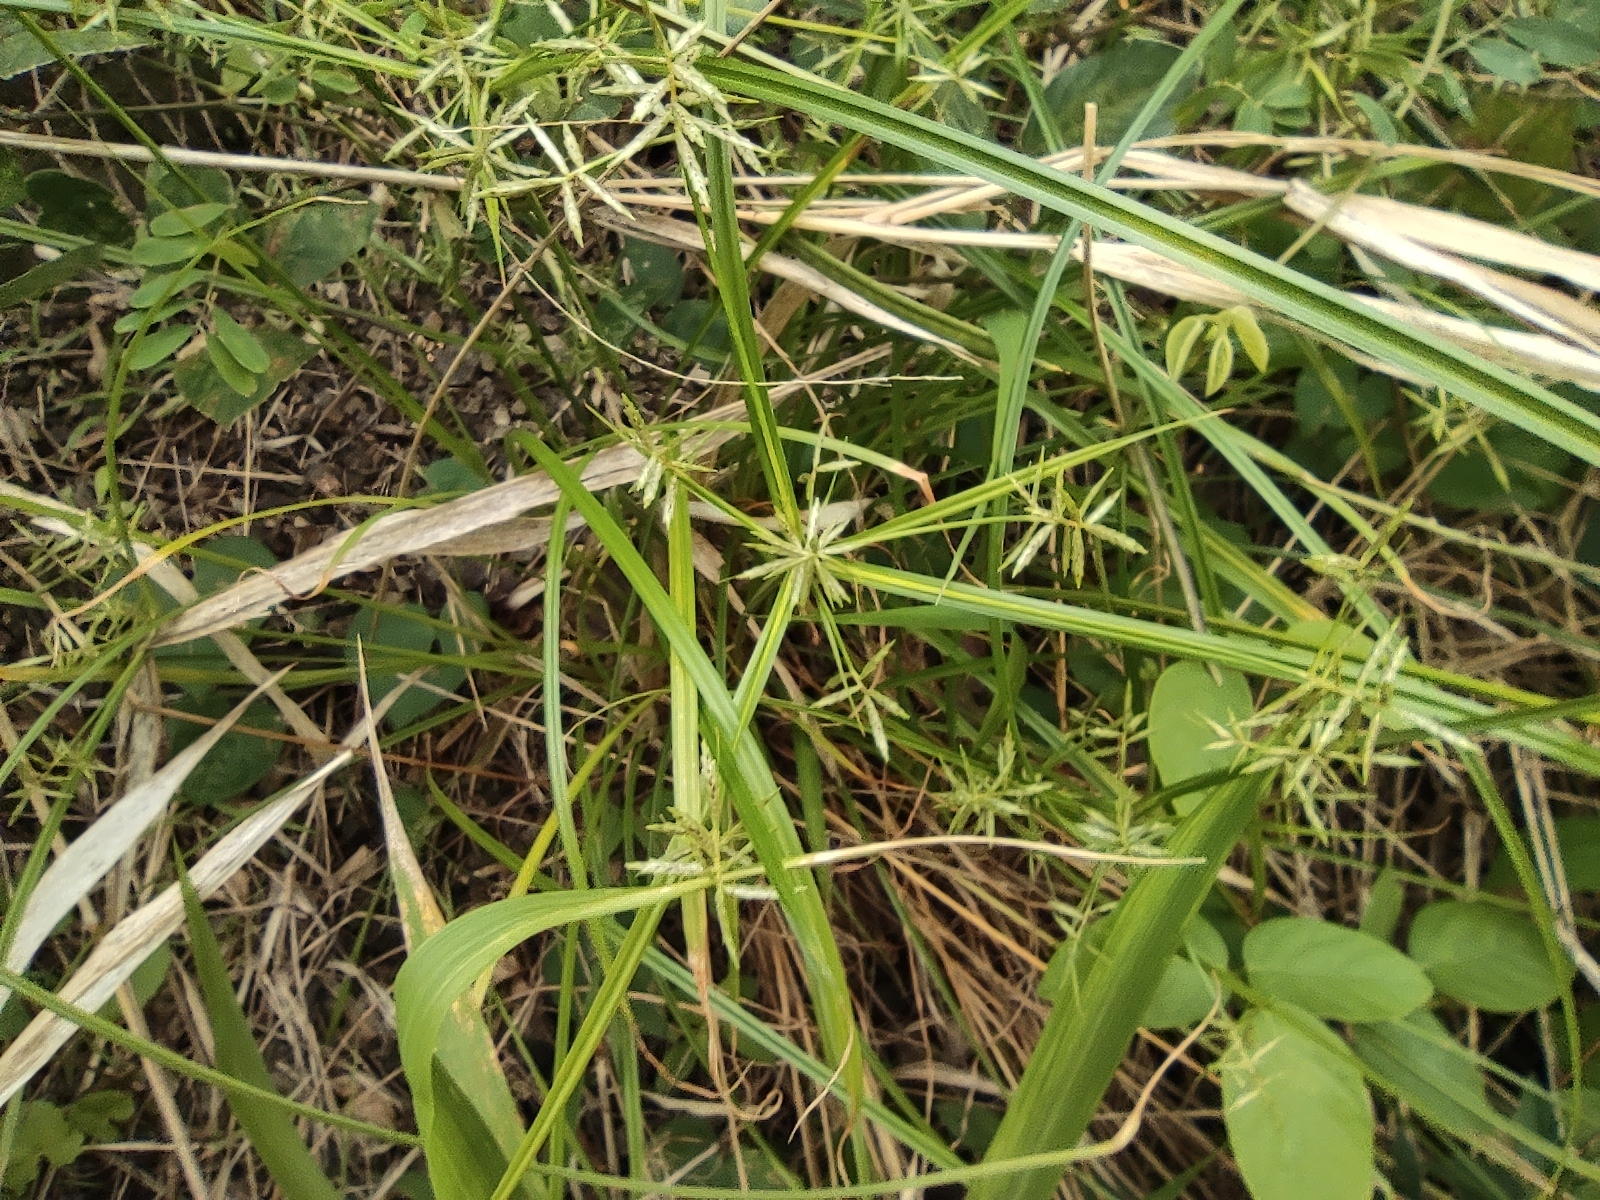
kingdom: Plantae
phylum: Tracheophyta
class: Liliopsida
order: Poales
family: Cyperaceae
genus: Cyperus
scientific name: Cyperus sphacelatus
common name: Roadside flatsedge
